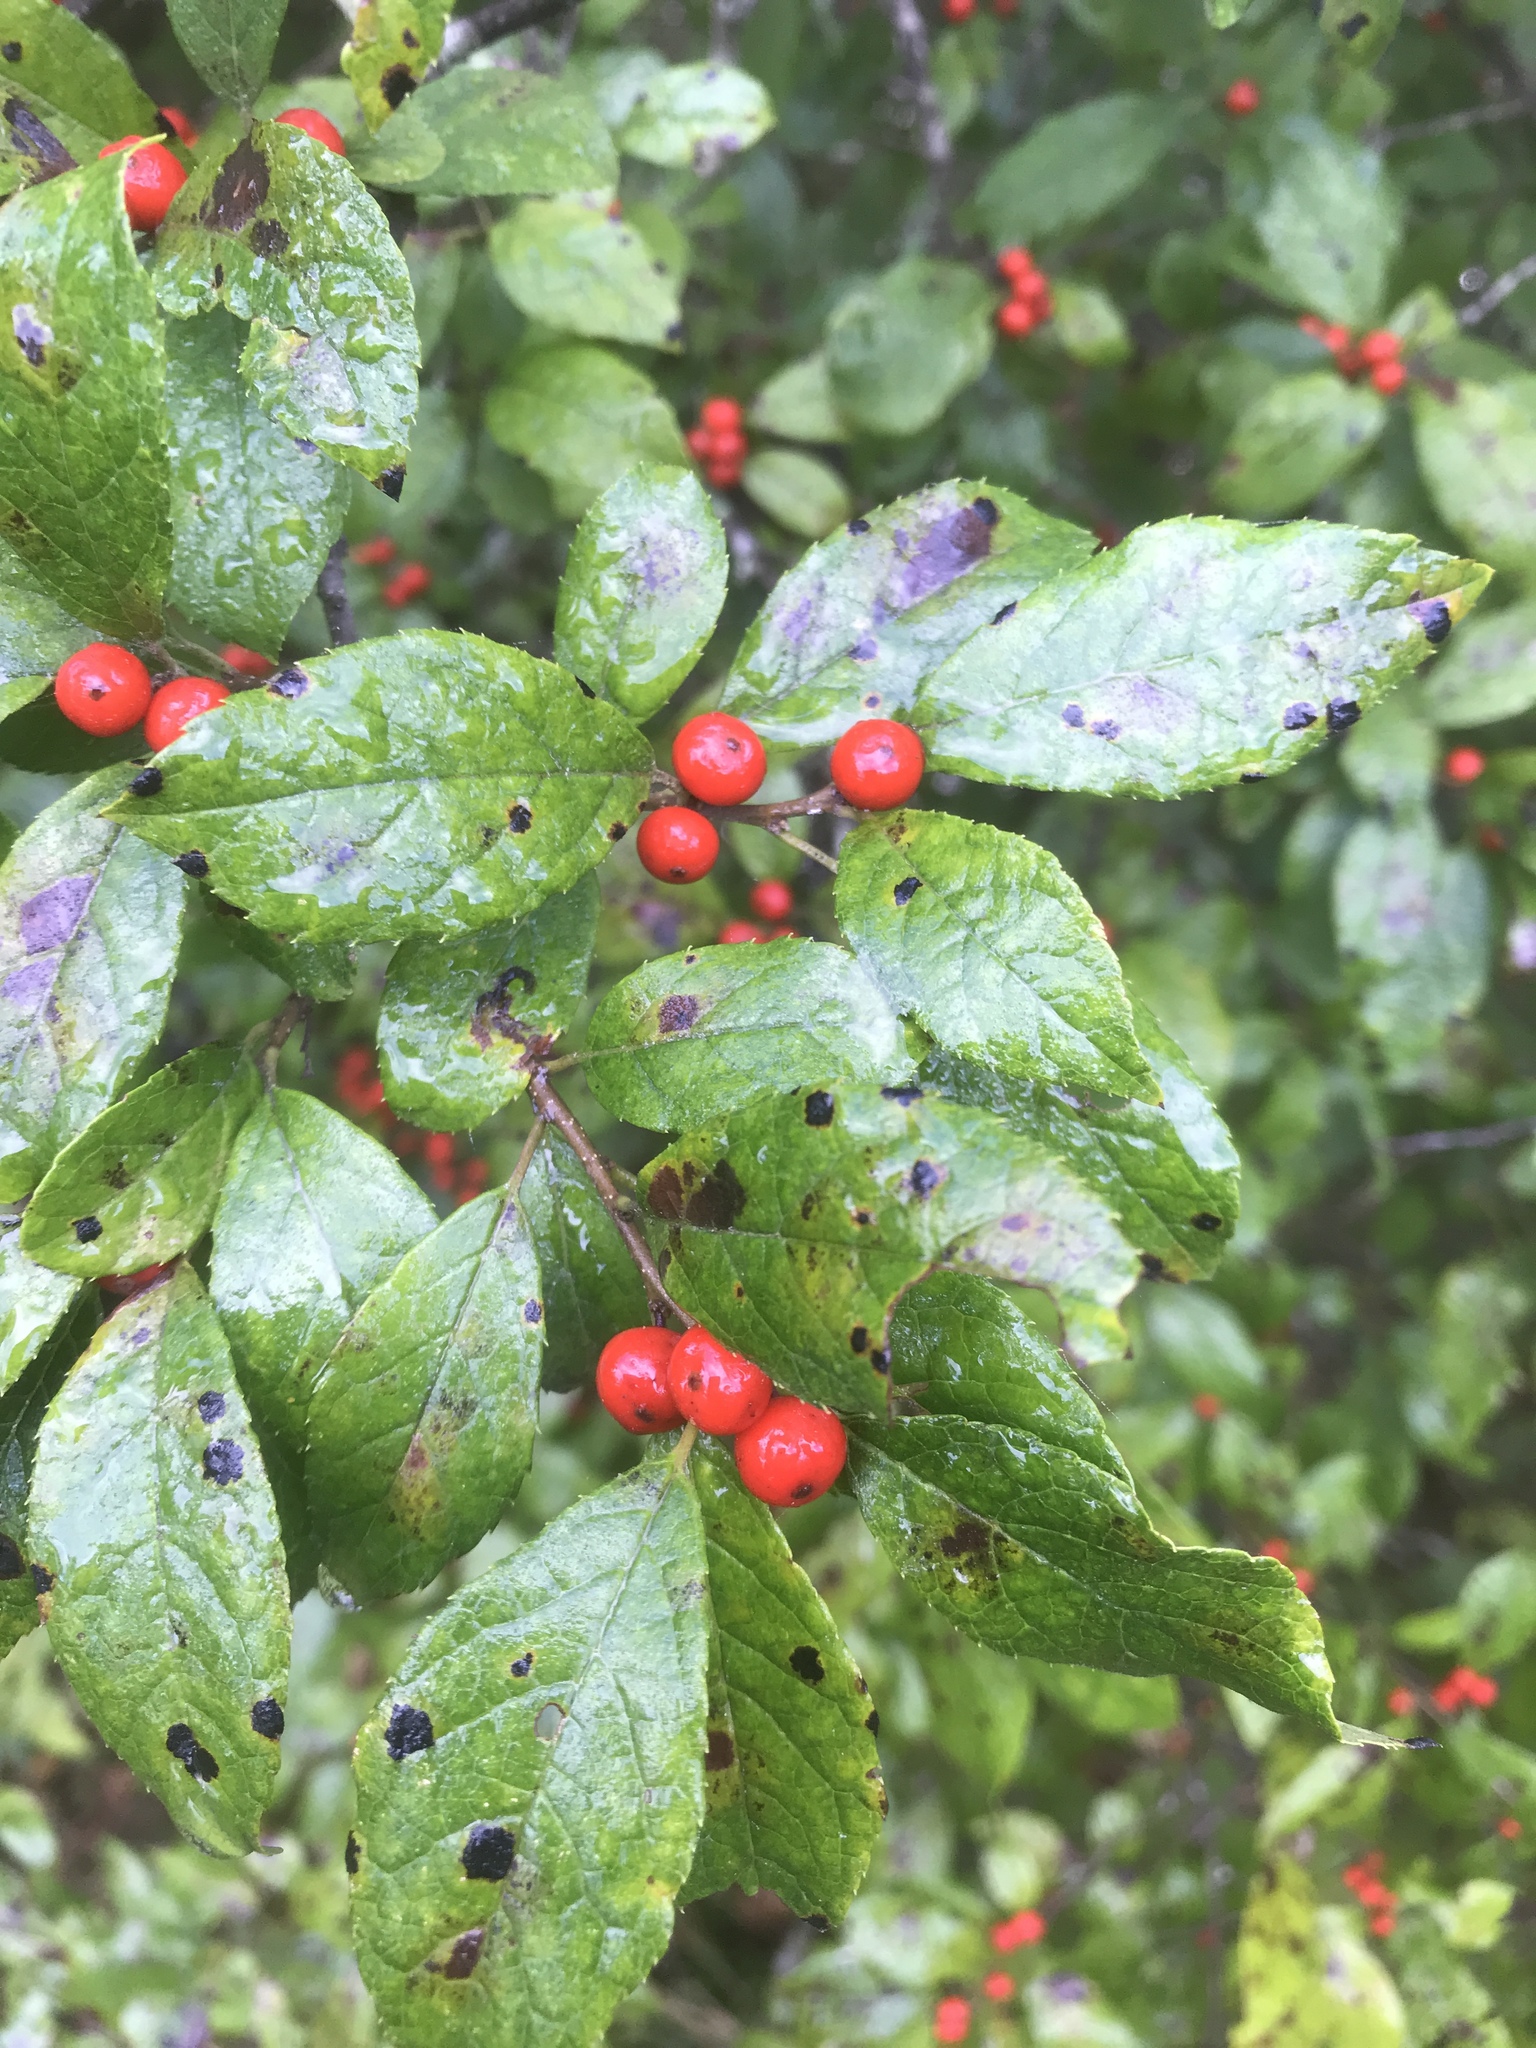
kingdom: Plantae
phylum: Tracheophyta
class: Magnoliopsida
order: Aquifoliales
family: Aquifoliaceae
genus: Ilex
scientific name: Ilex verticillata
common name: Virginia winterberry
